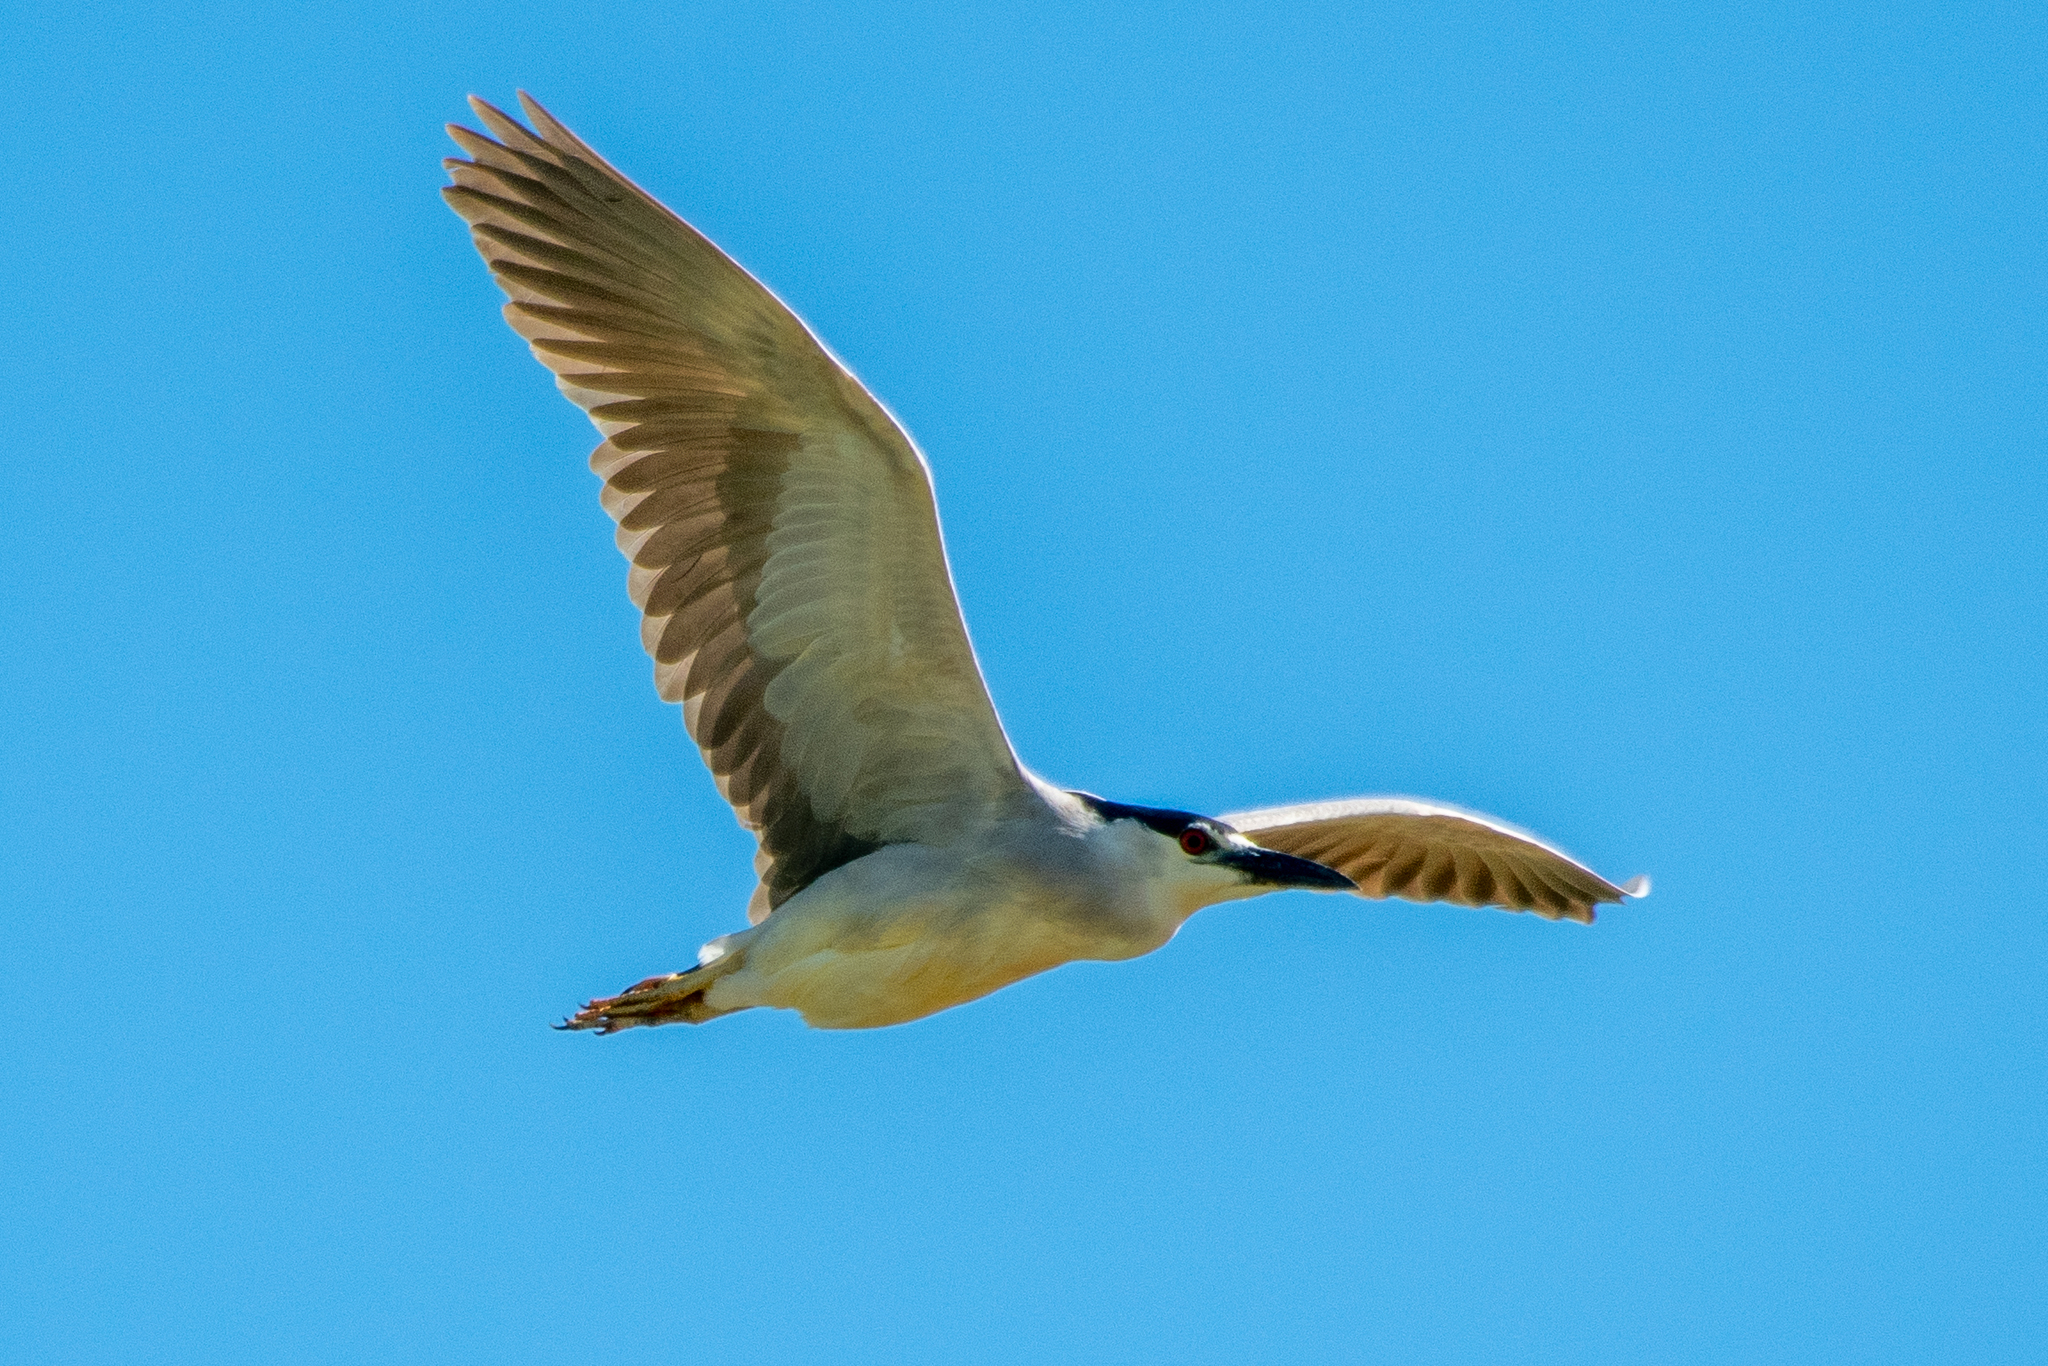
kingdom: Animalia
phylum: Chordata
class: Aves
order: Pelecaniformes
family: Ardeidae
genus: Nycticorax
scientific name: Nycticorax nycticorax
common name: Black-crowned night heron
